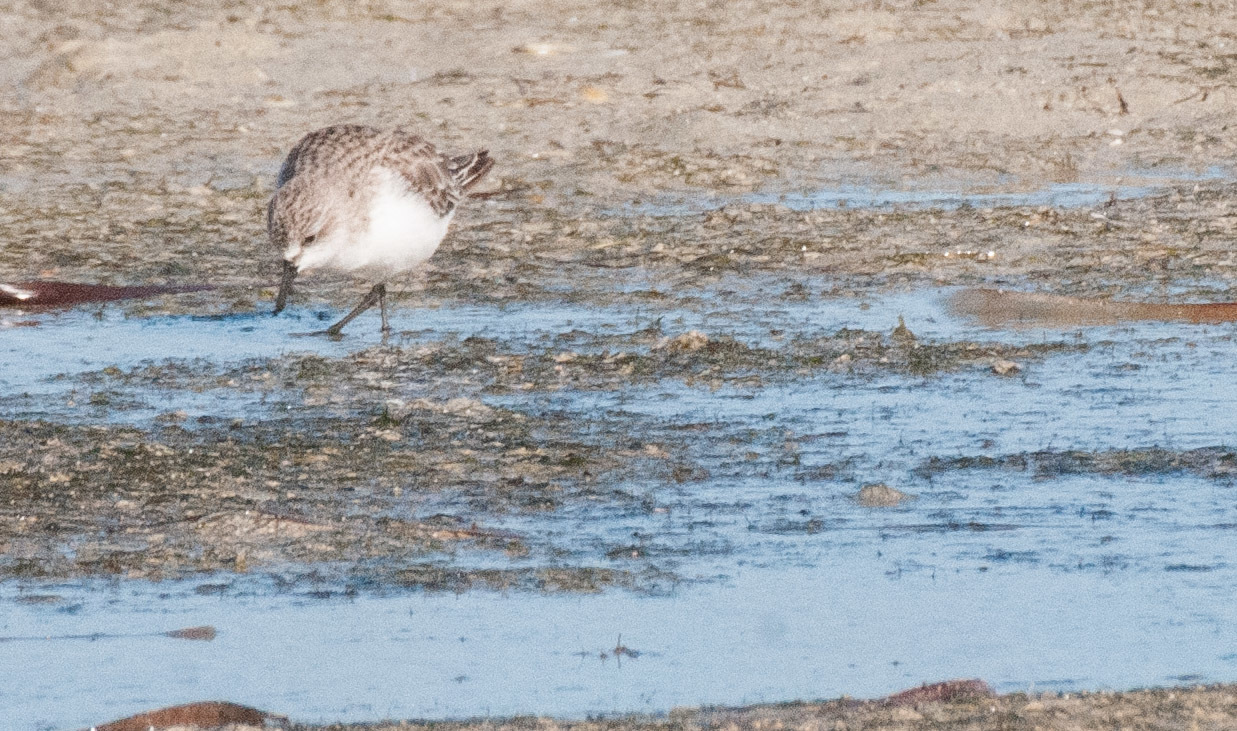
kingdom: Animalia
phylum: Chordata
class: Aves
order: Charadriiformes
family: Scolopacidae
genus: Calidris
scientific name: Calidris ruficollis
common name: Red-necked stint
